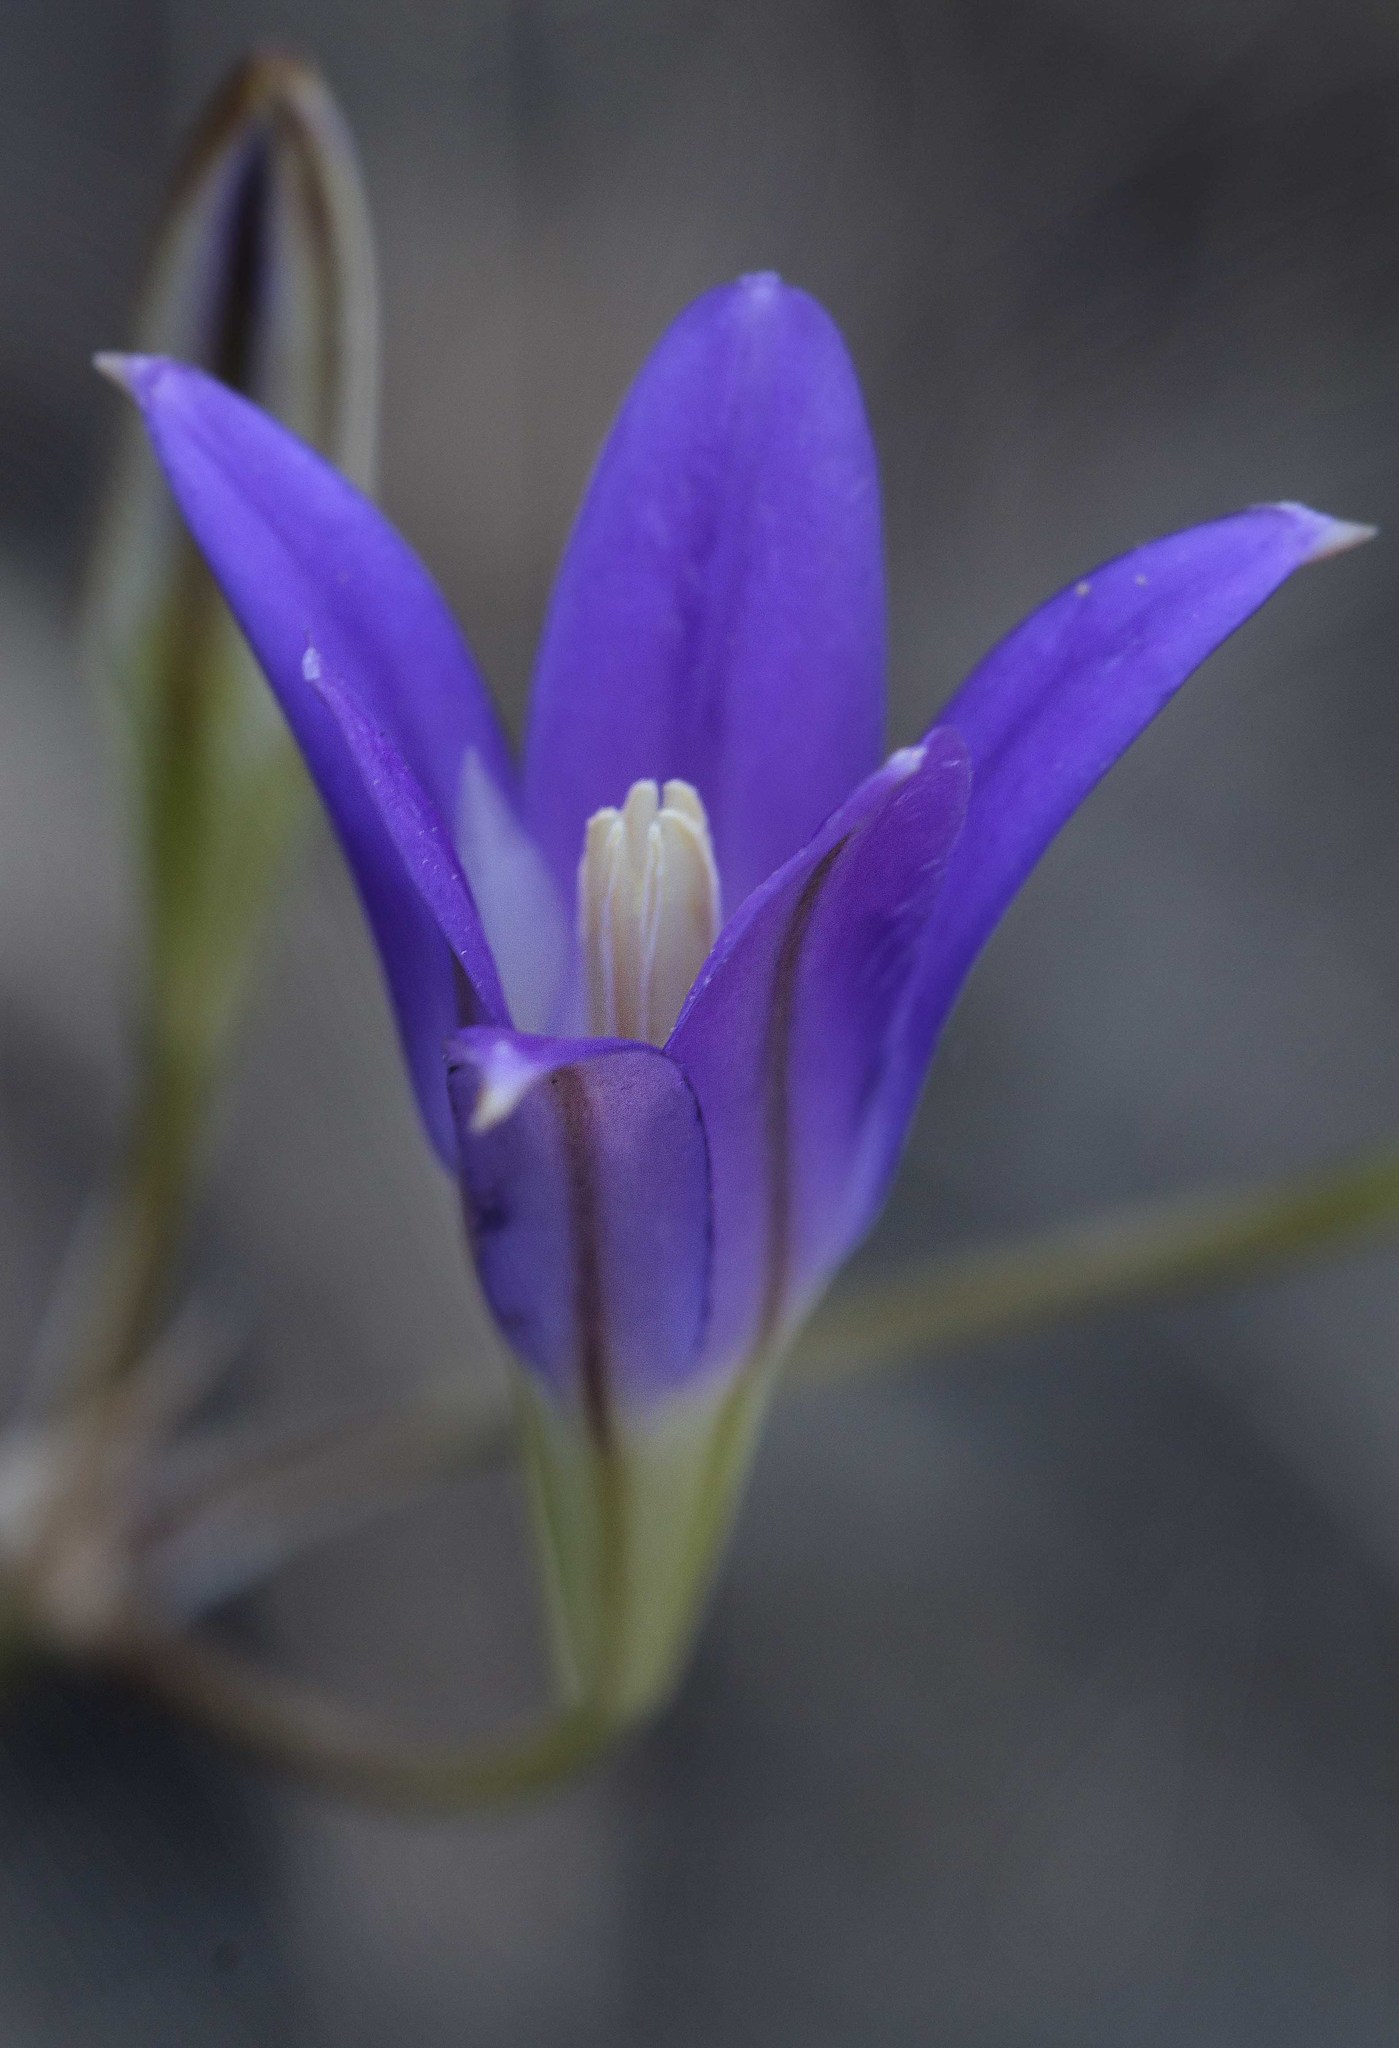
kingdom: Plantae
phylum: Tracheophyta
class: Liliopsida
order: Asparagales
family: Asparagaceae
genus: Brodiaea
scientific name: Brodiaea elegans
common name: Elegant cluster-lily
